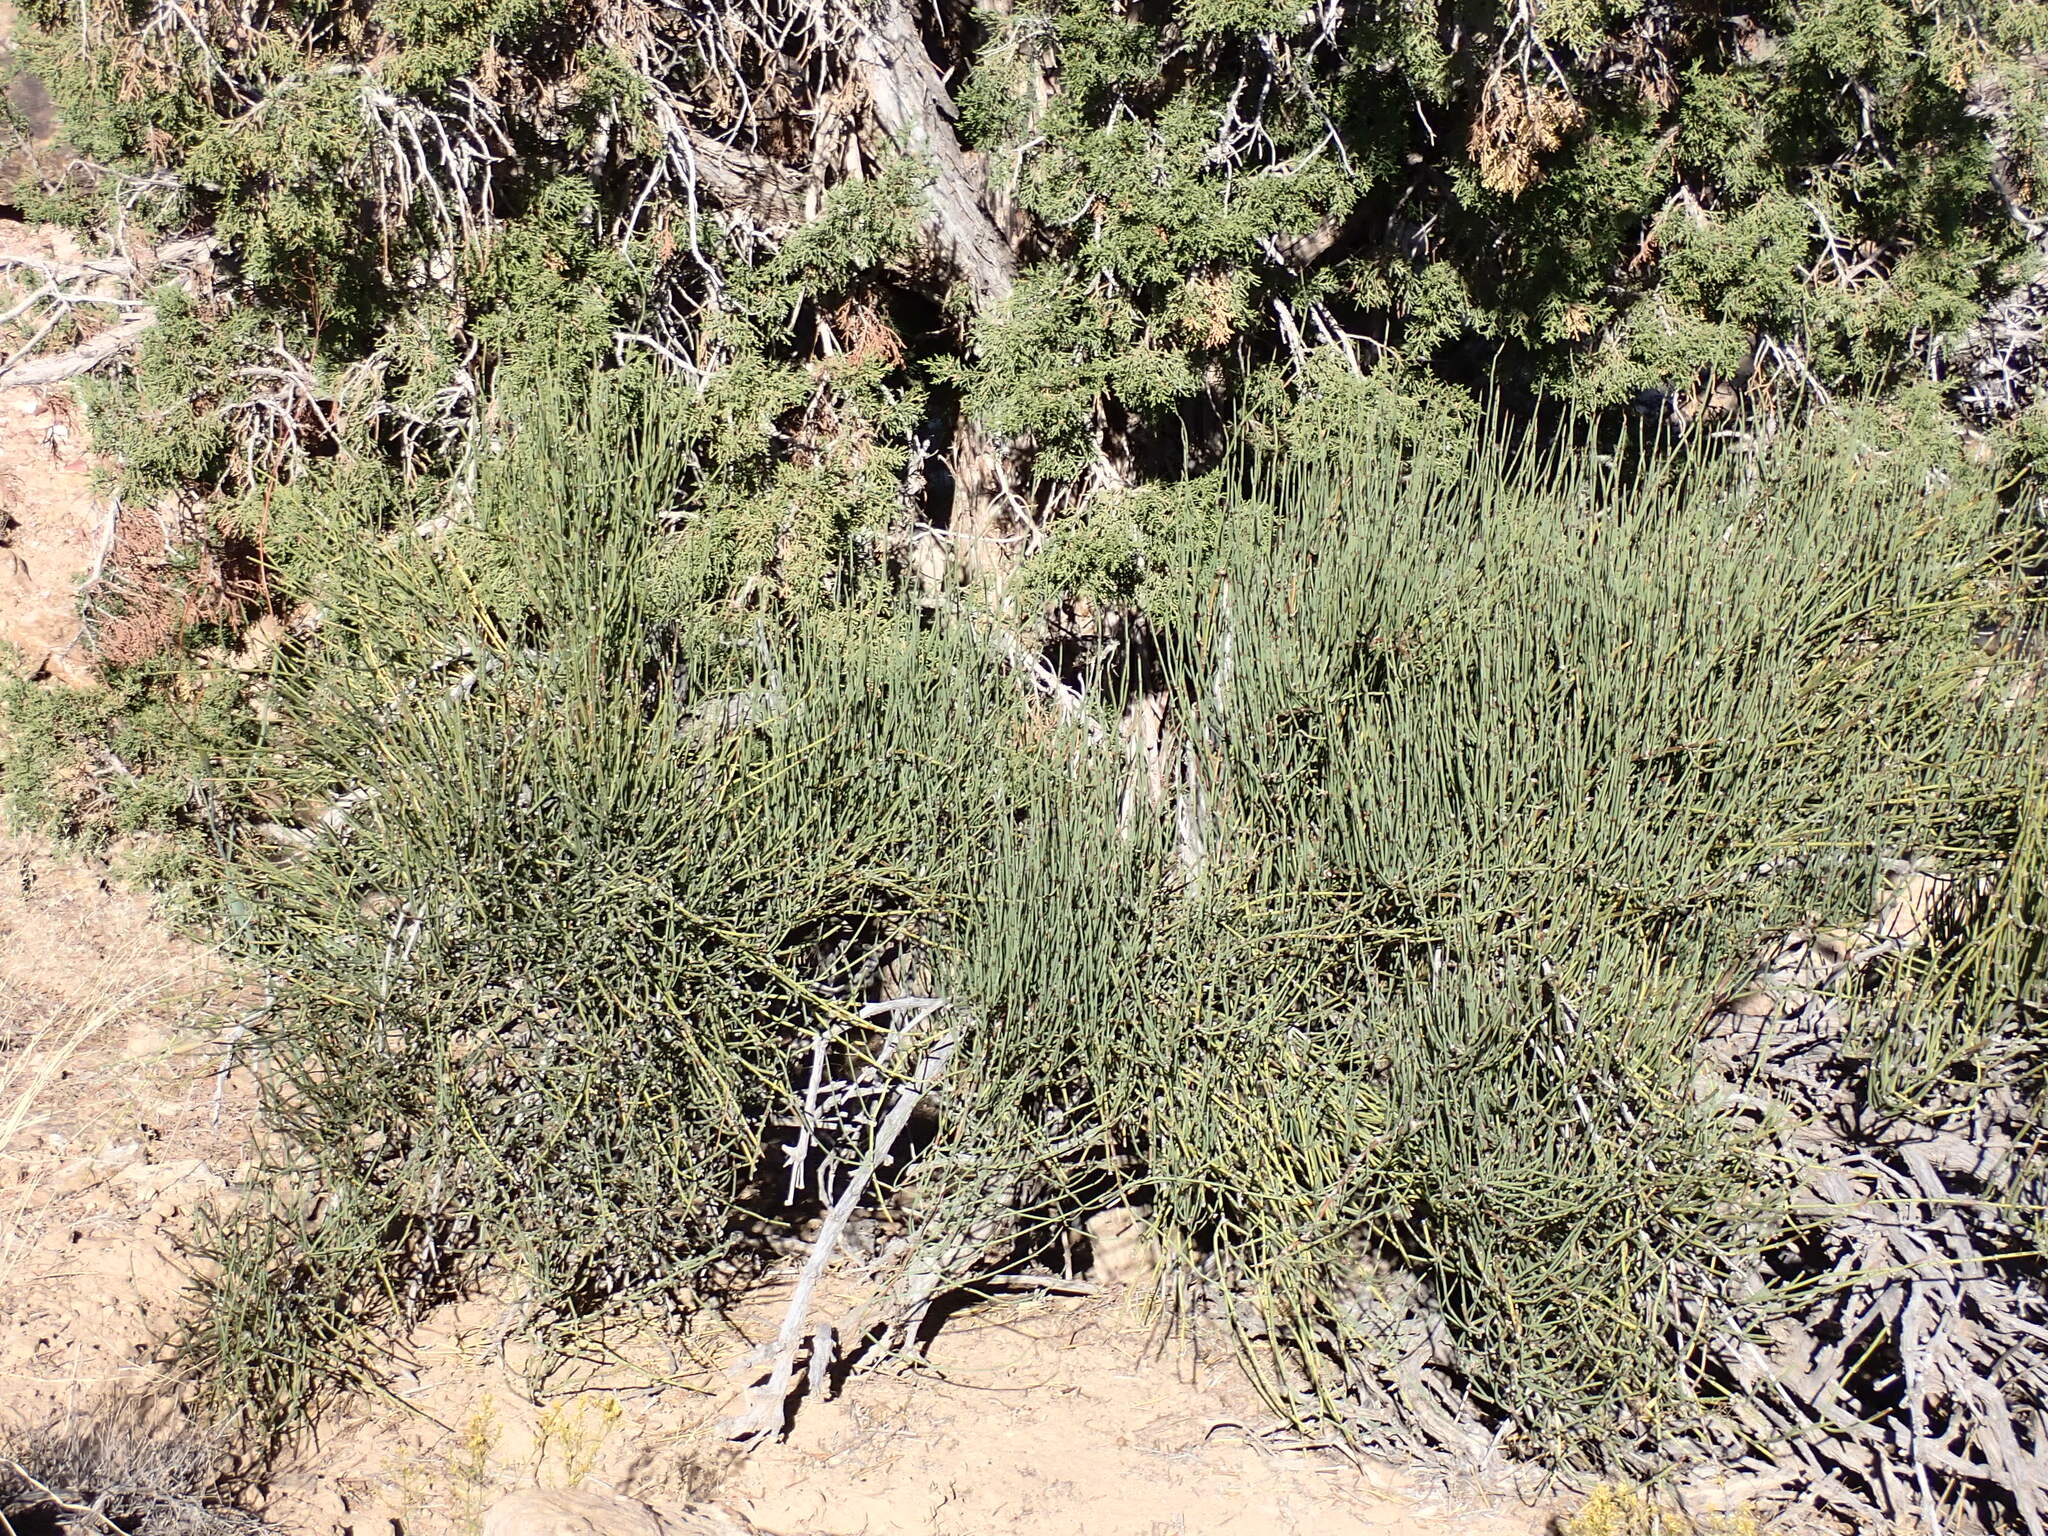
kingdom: Plantae
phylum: Tracheophyta
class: Gnetopsida
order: Ephedrales
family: Ephedraceae
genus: Ephedra
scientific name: Ephedra viridis
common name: Green ephedra
